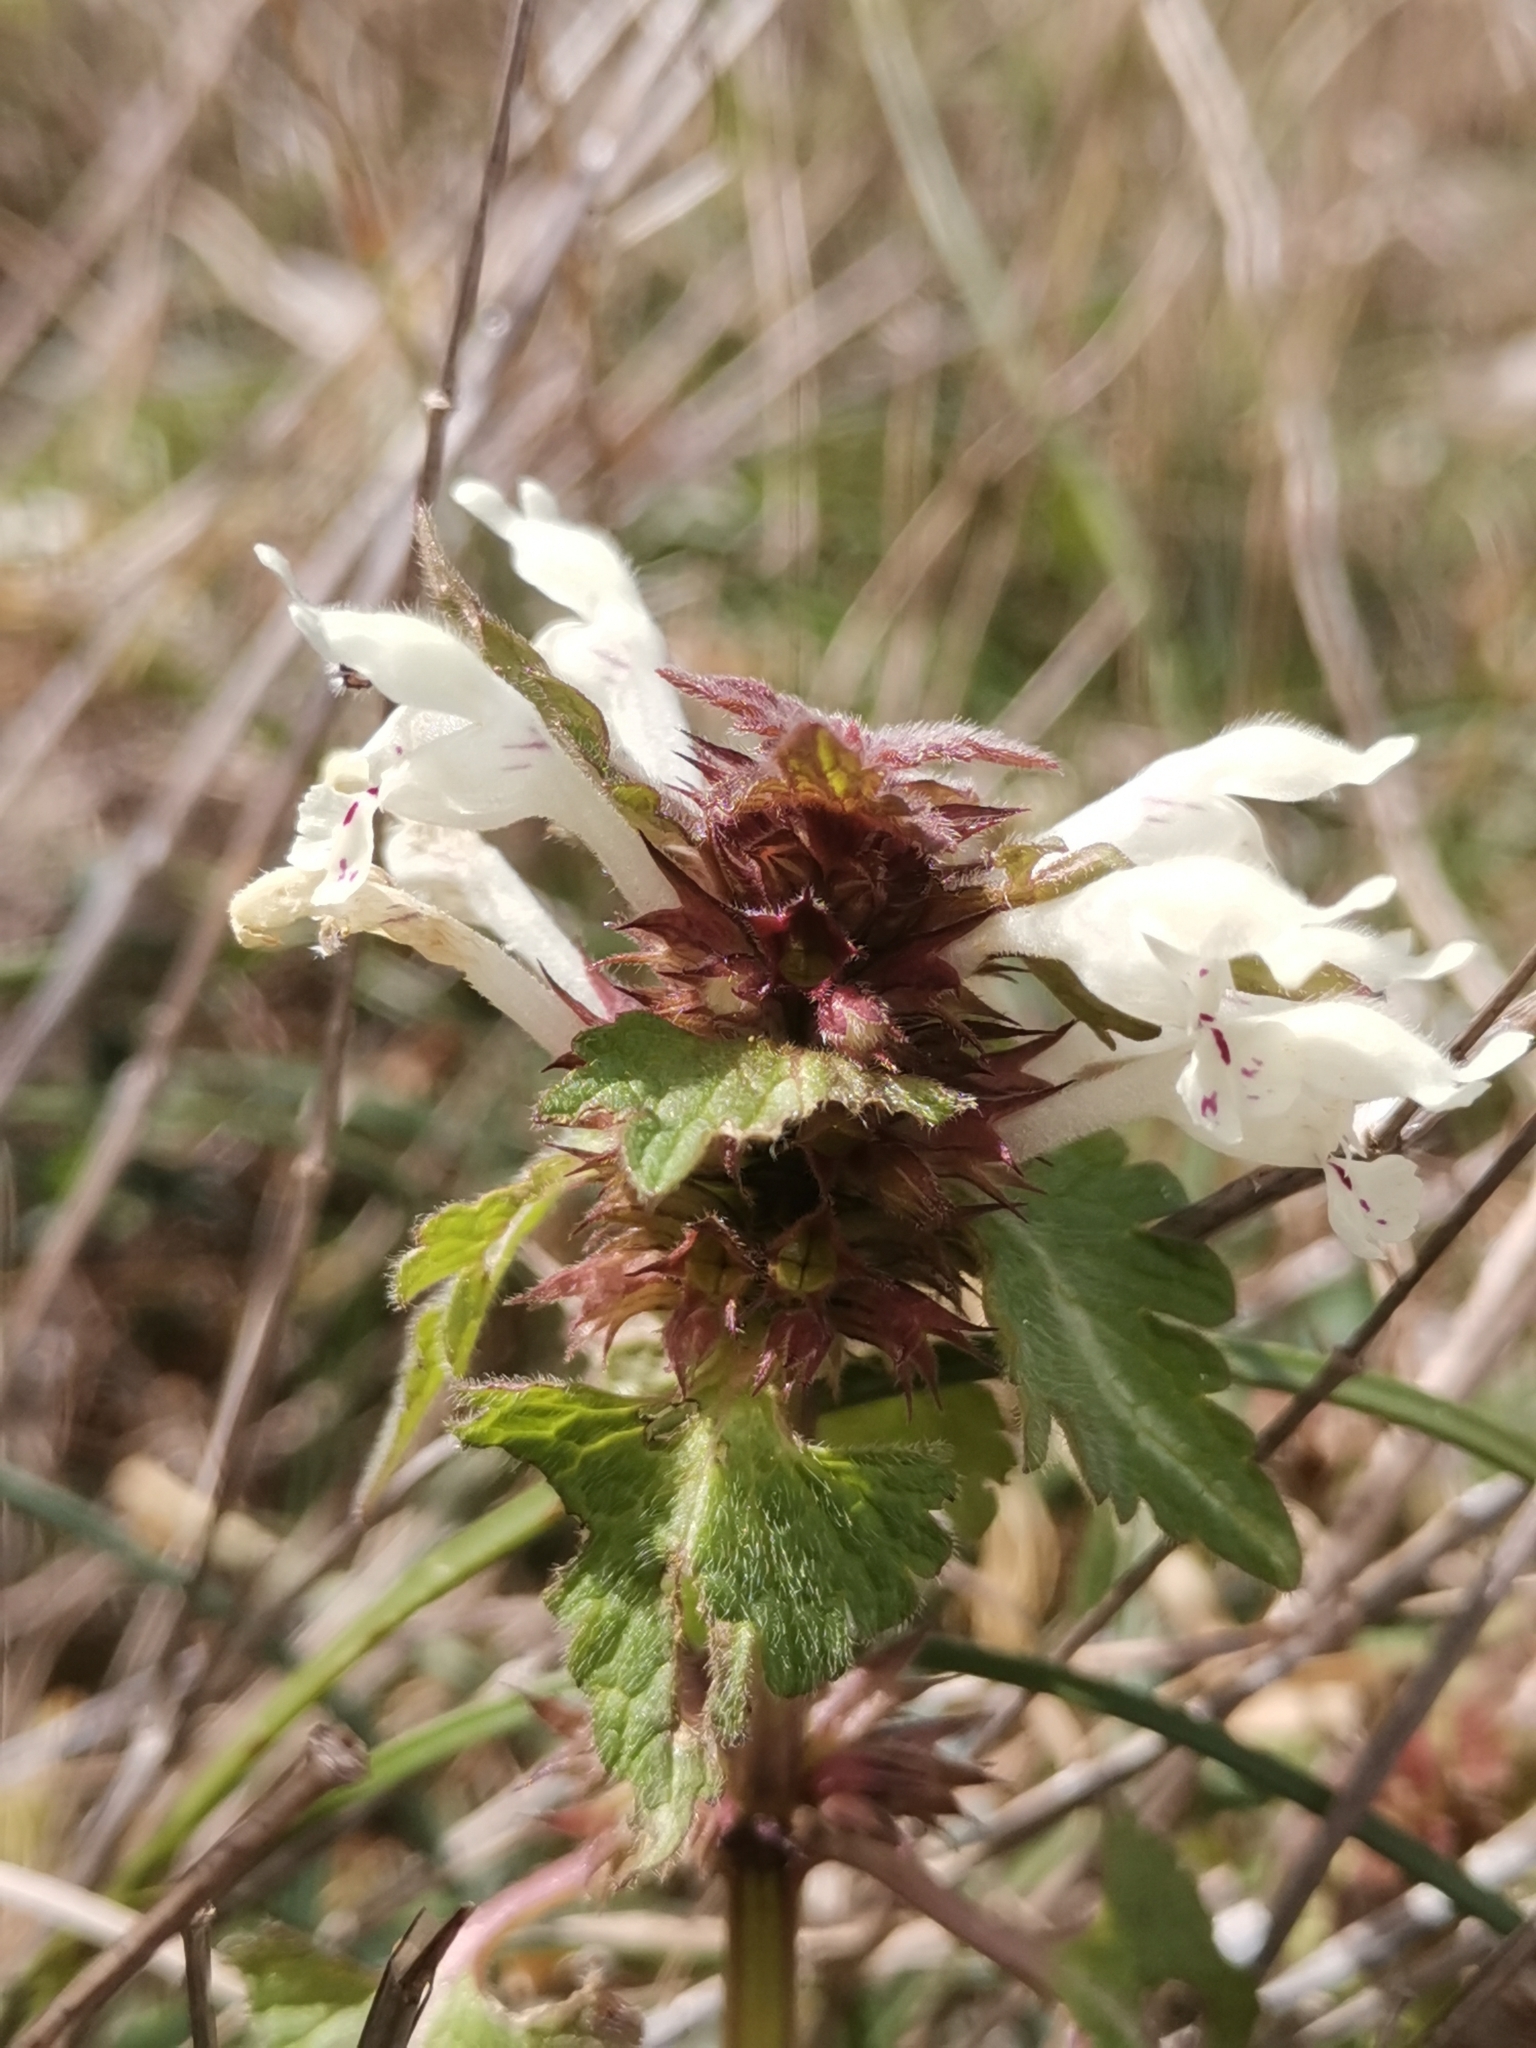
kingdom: Plantae
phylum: Tracheophyta
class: Magnoliopsida
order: Lamiales
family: Lamiaceae
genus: Lamium
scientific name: Lamium bifidum
